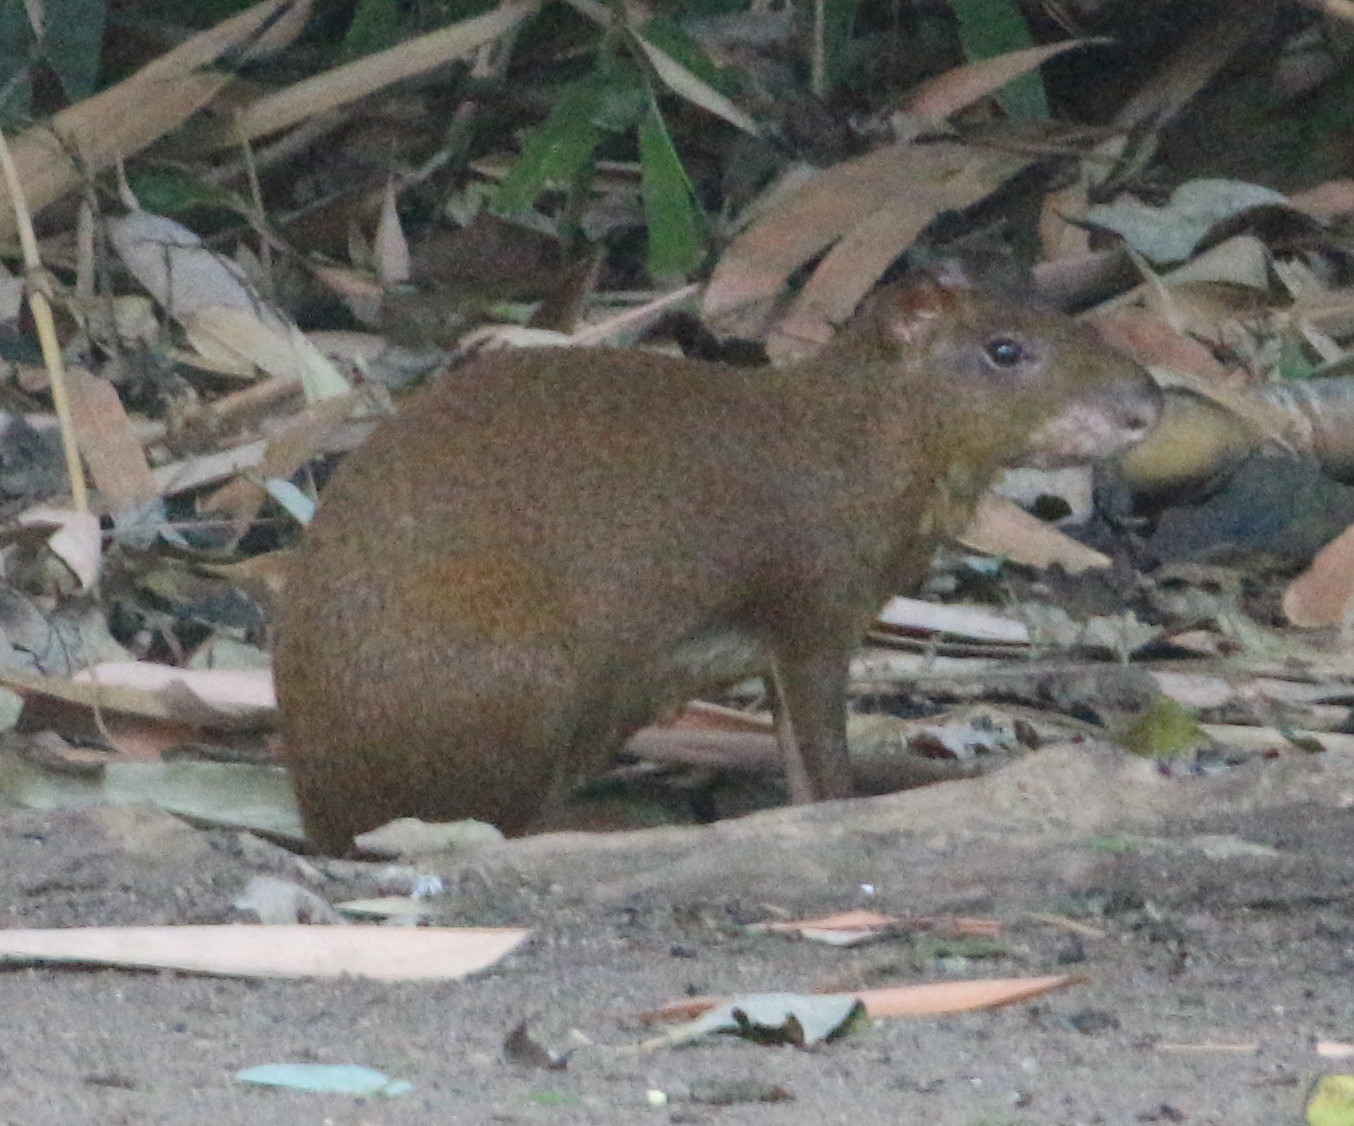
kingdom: Animalia
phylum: Chordata
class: Mammalia
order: Rodentia
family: Dasyproctidae
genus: Dasyprocta
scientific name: Dasyprocta punctata
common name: Central american agouti
